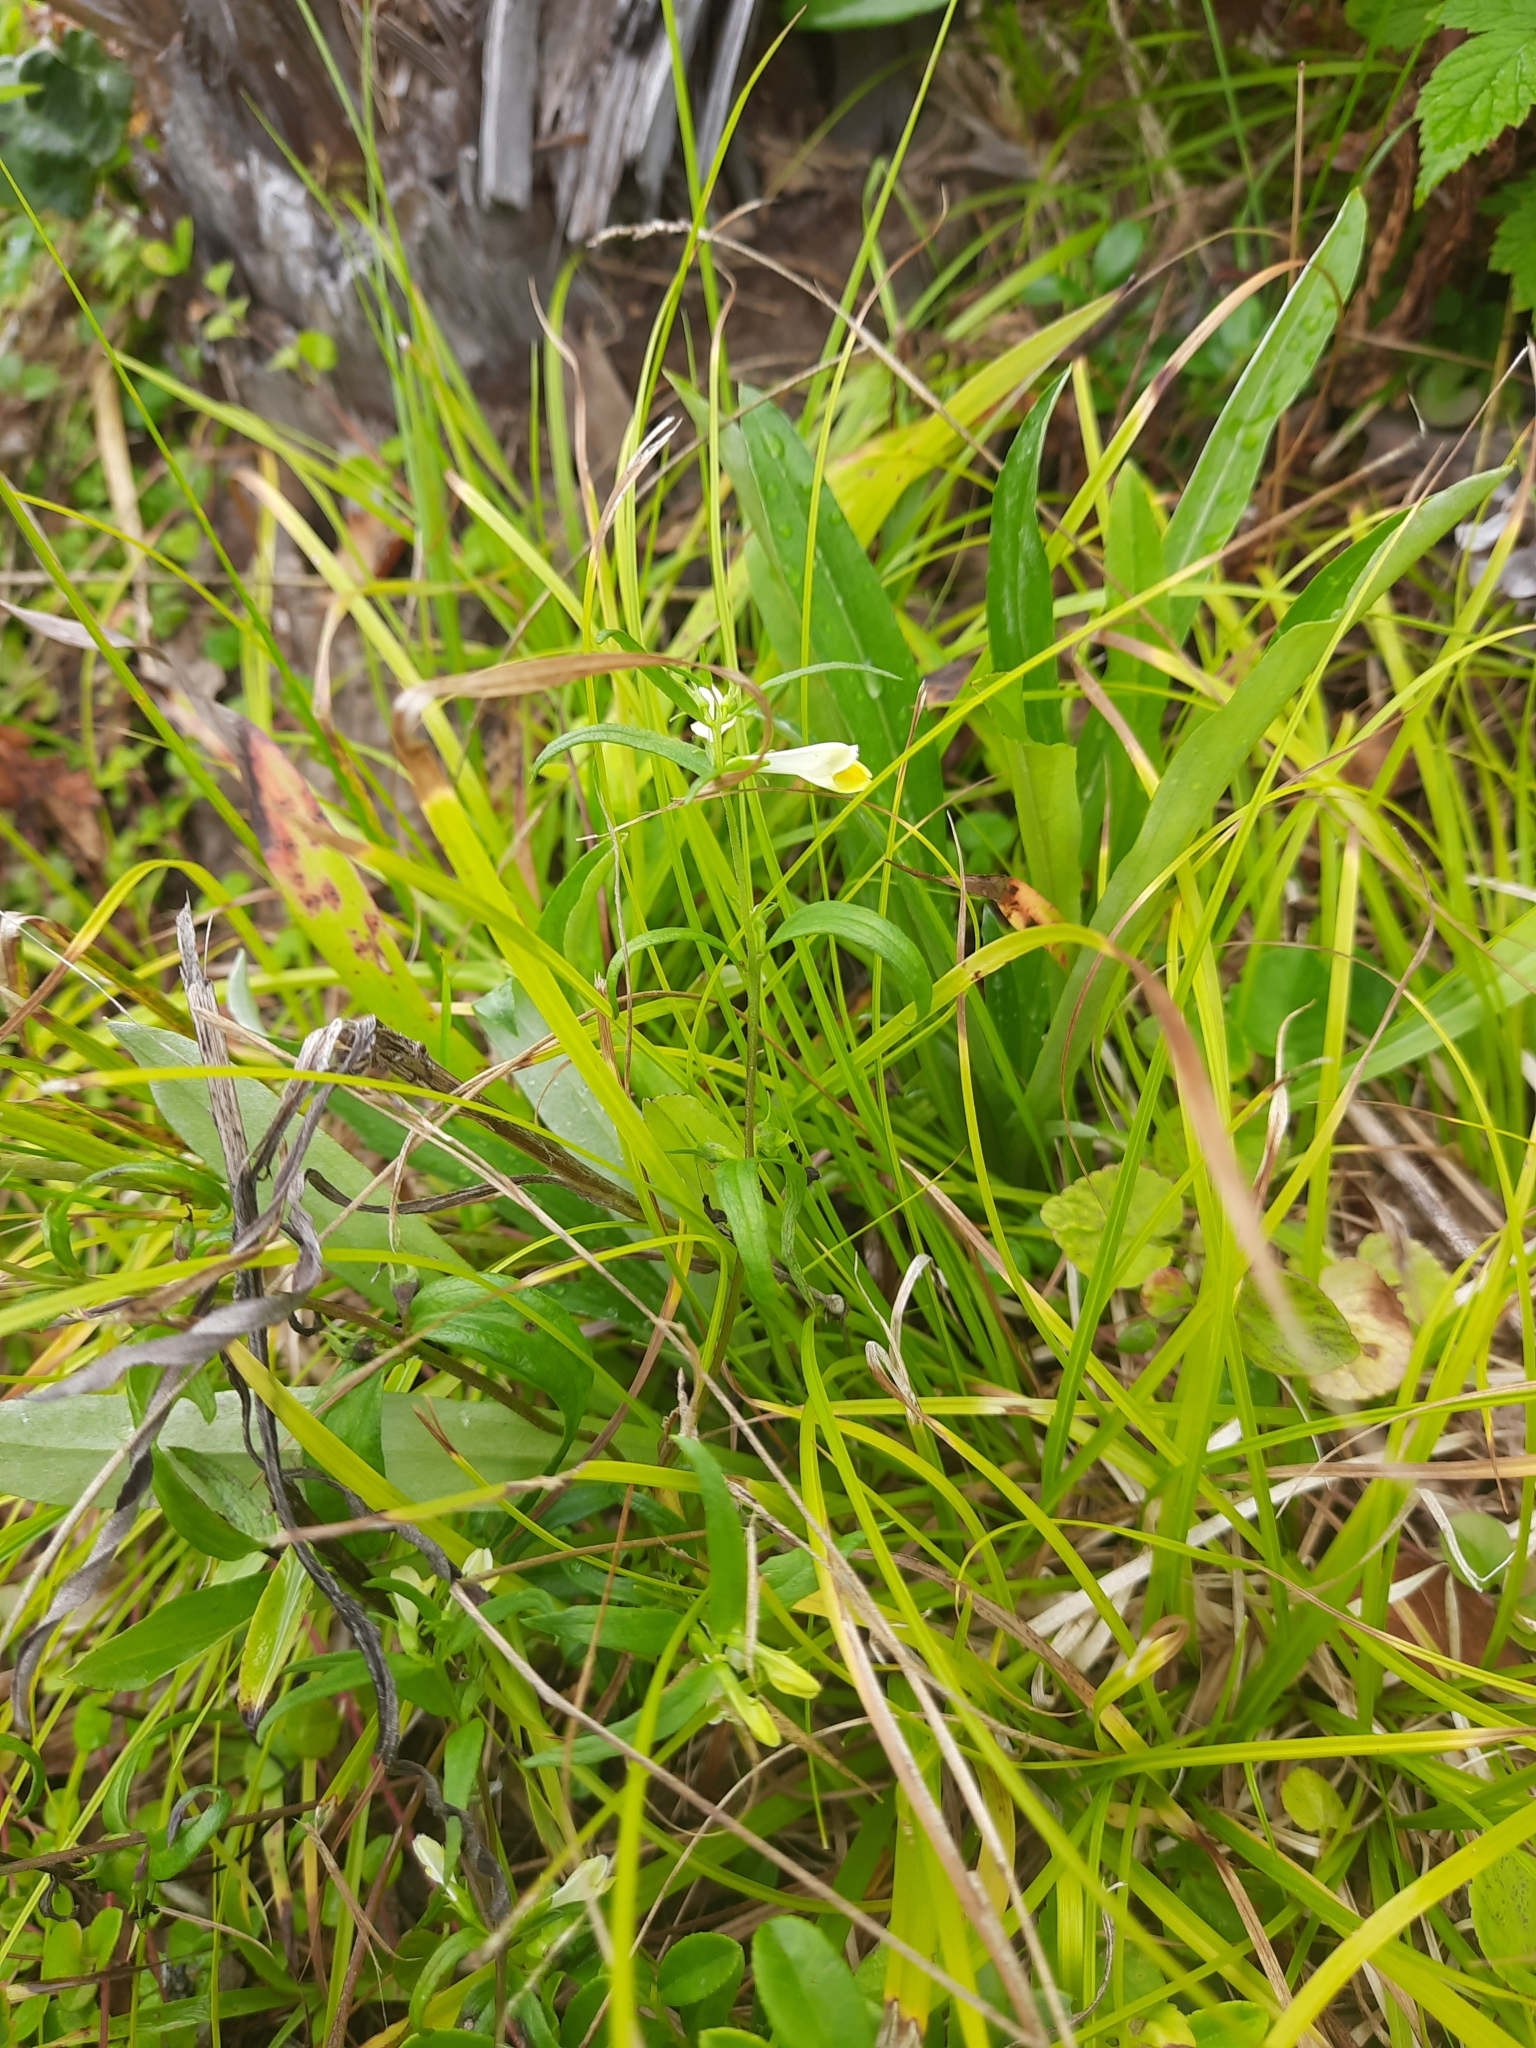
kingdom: Plantae
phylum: Tracheophyta
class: Magnoliopsida
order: Lamiales
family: Orobanchaceae
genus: Melampyrum
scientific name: Melampyrum pratense
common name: Common cow-wheat
